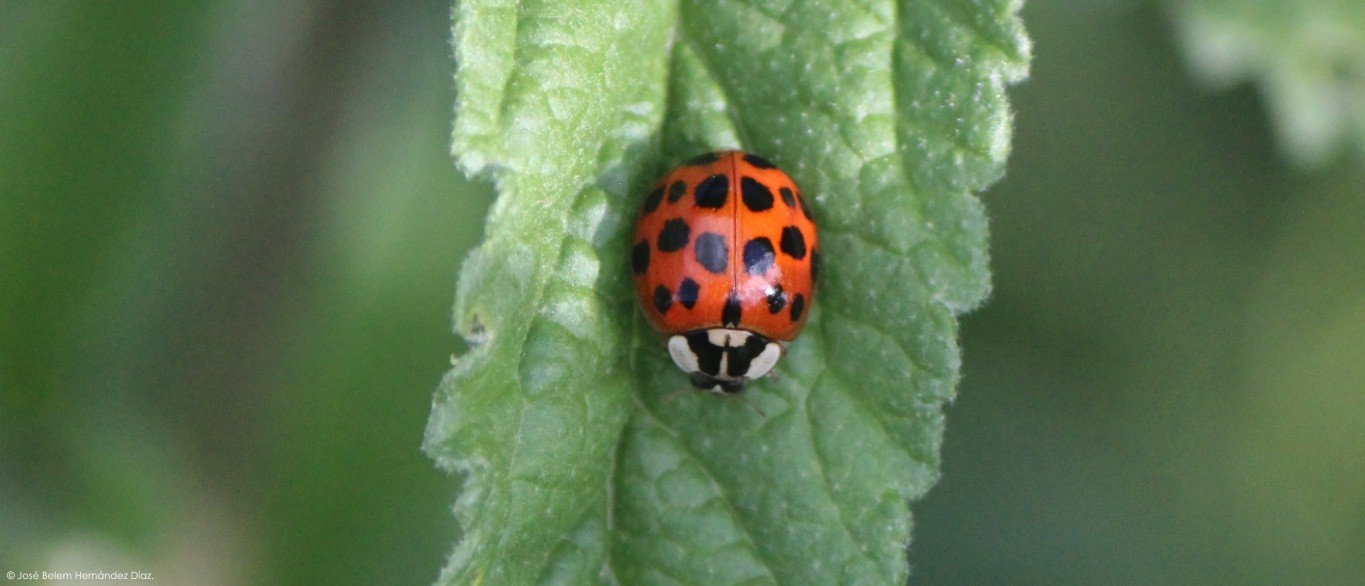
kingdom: Animalia
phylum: Arthropoda
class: Insecta
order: Coleoptera
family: Coccinellidae
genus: Harmonia
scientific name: Harmonia axyridis
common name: Harlequin ladybird
